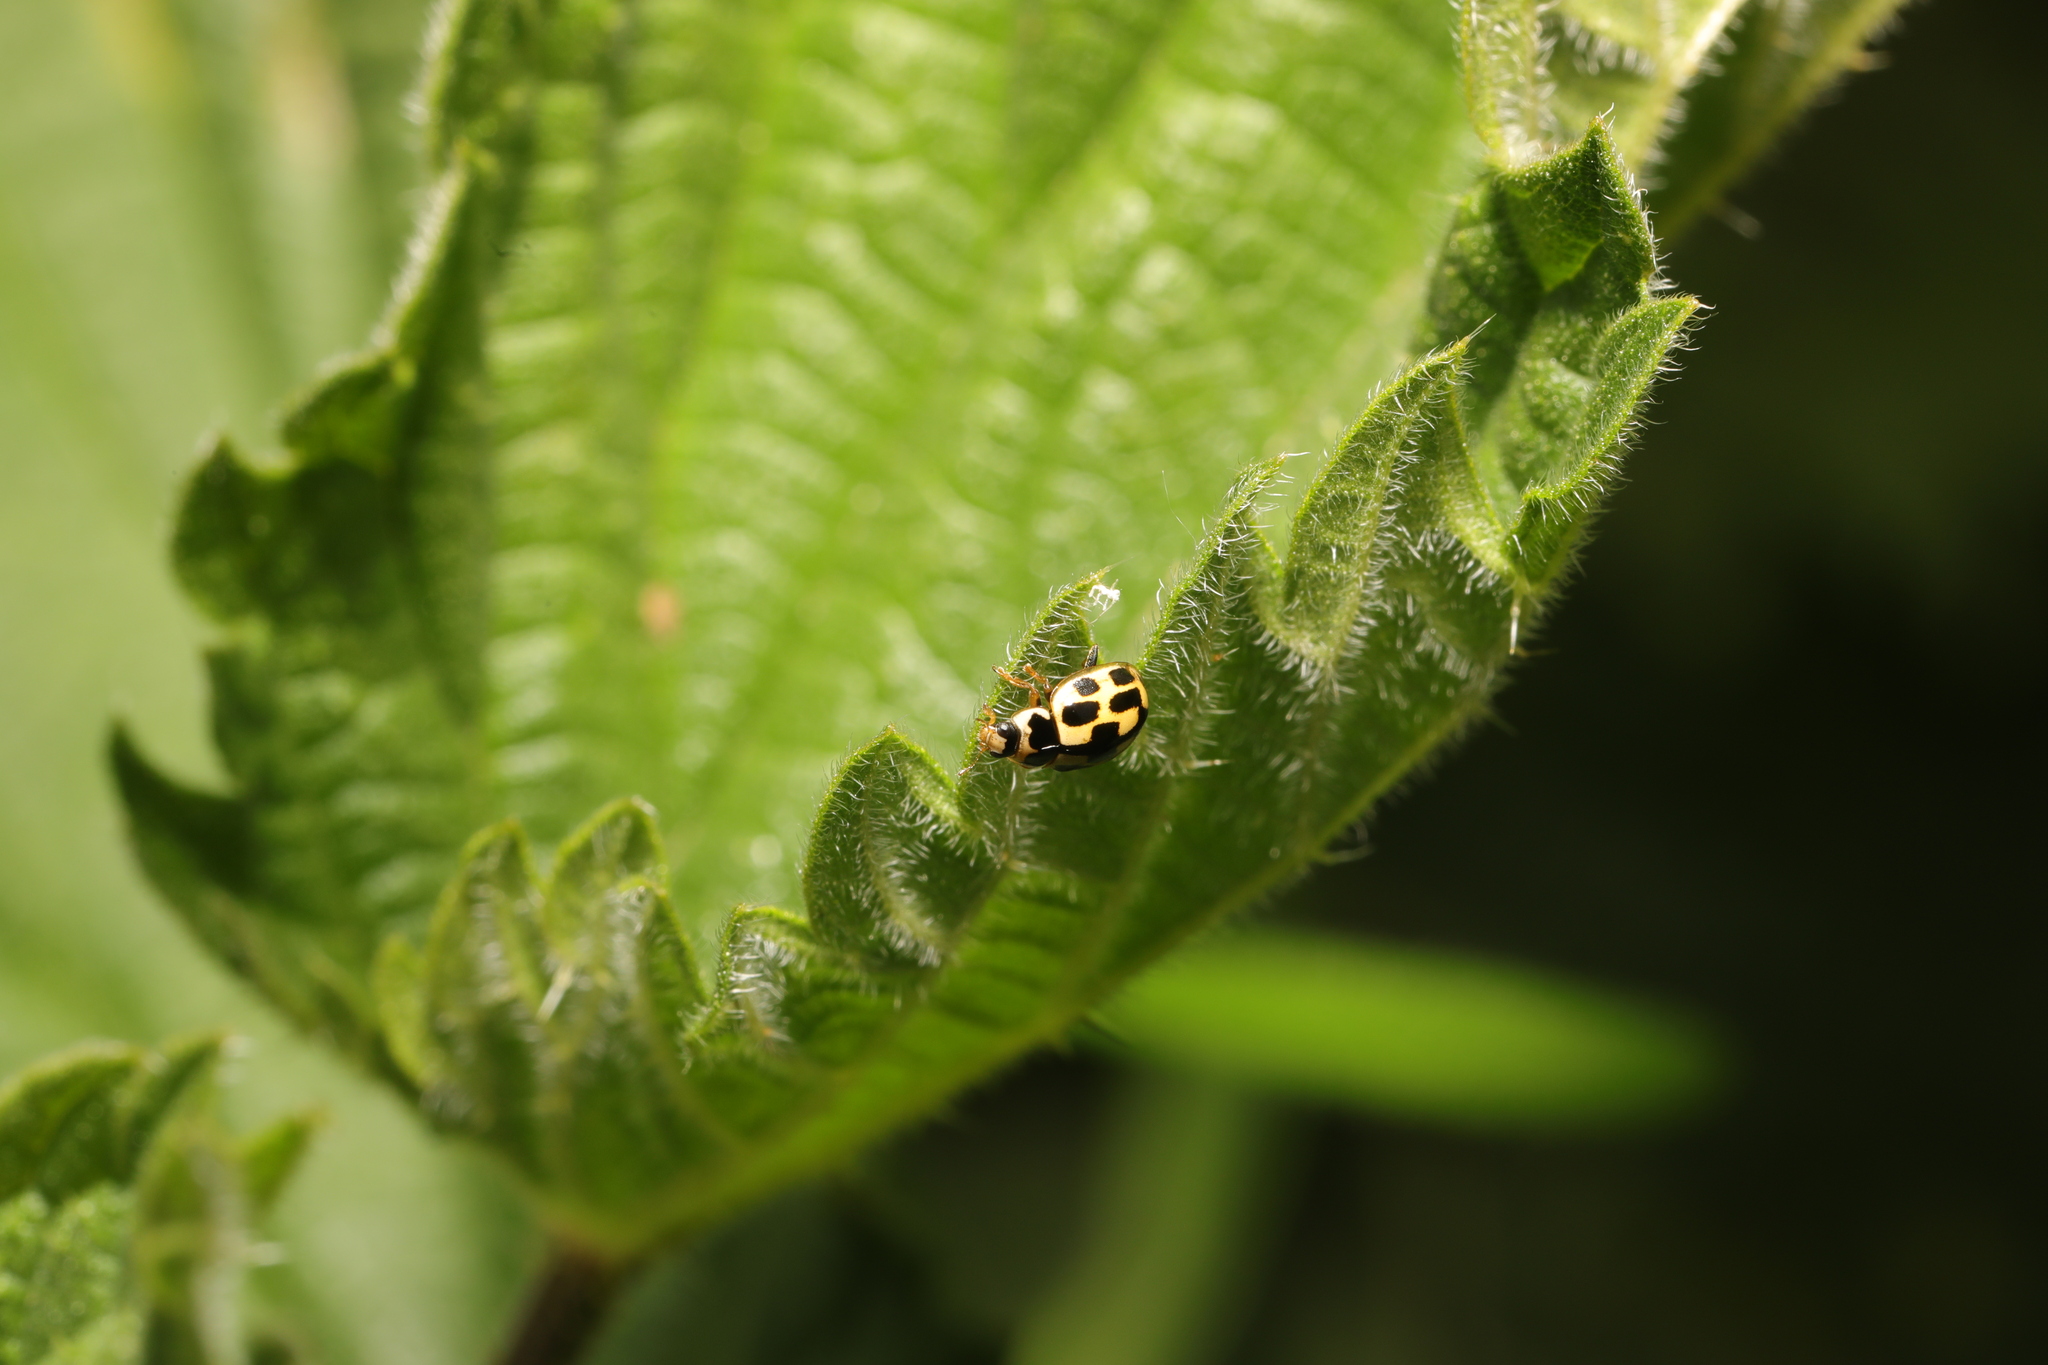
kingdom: Animalia
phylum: Arthropoda
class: Insecta
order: Coleoptera
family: Coccinellidae
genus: Propylaea
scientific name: Propylaea quatuordecimpunctata
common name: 14-spotted ladybird beetle
